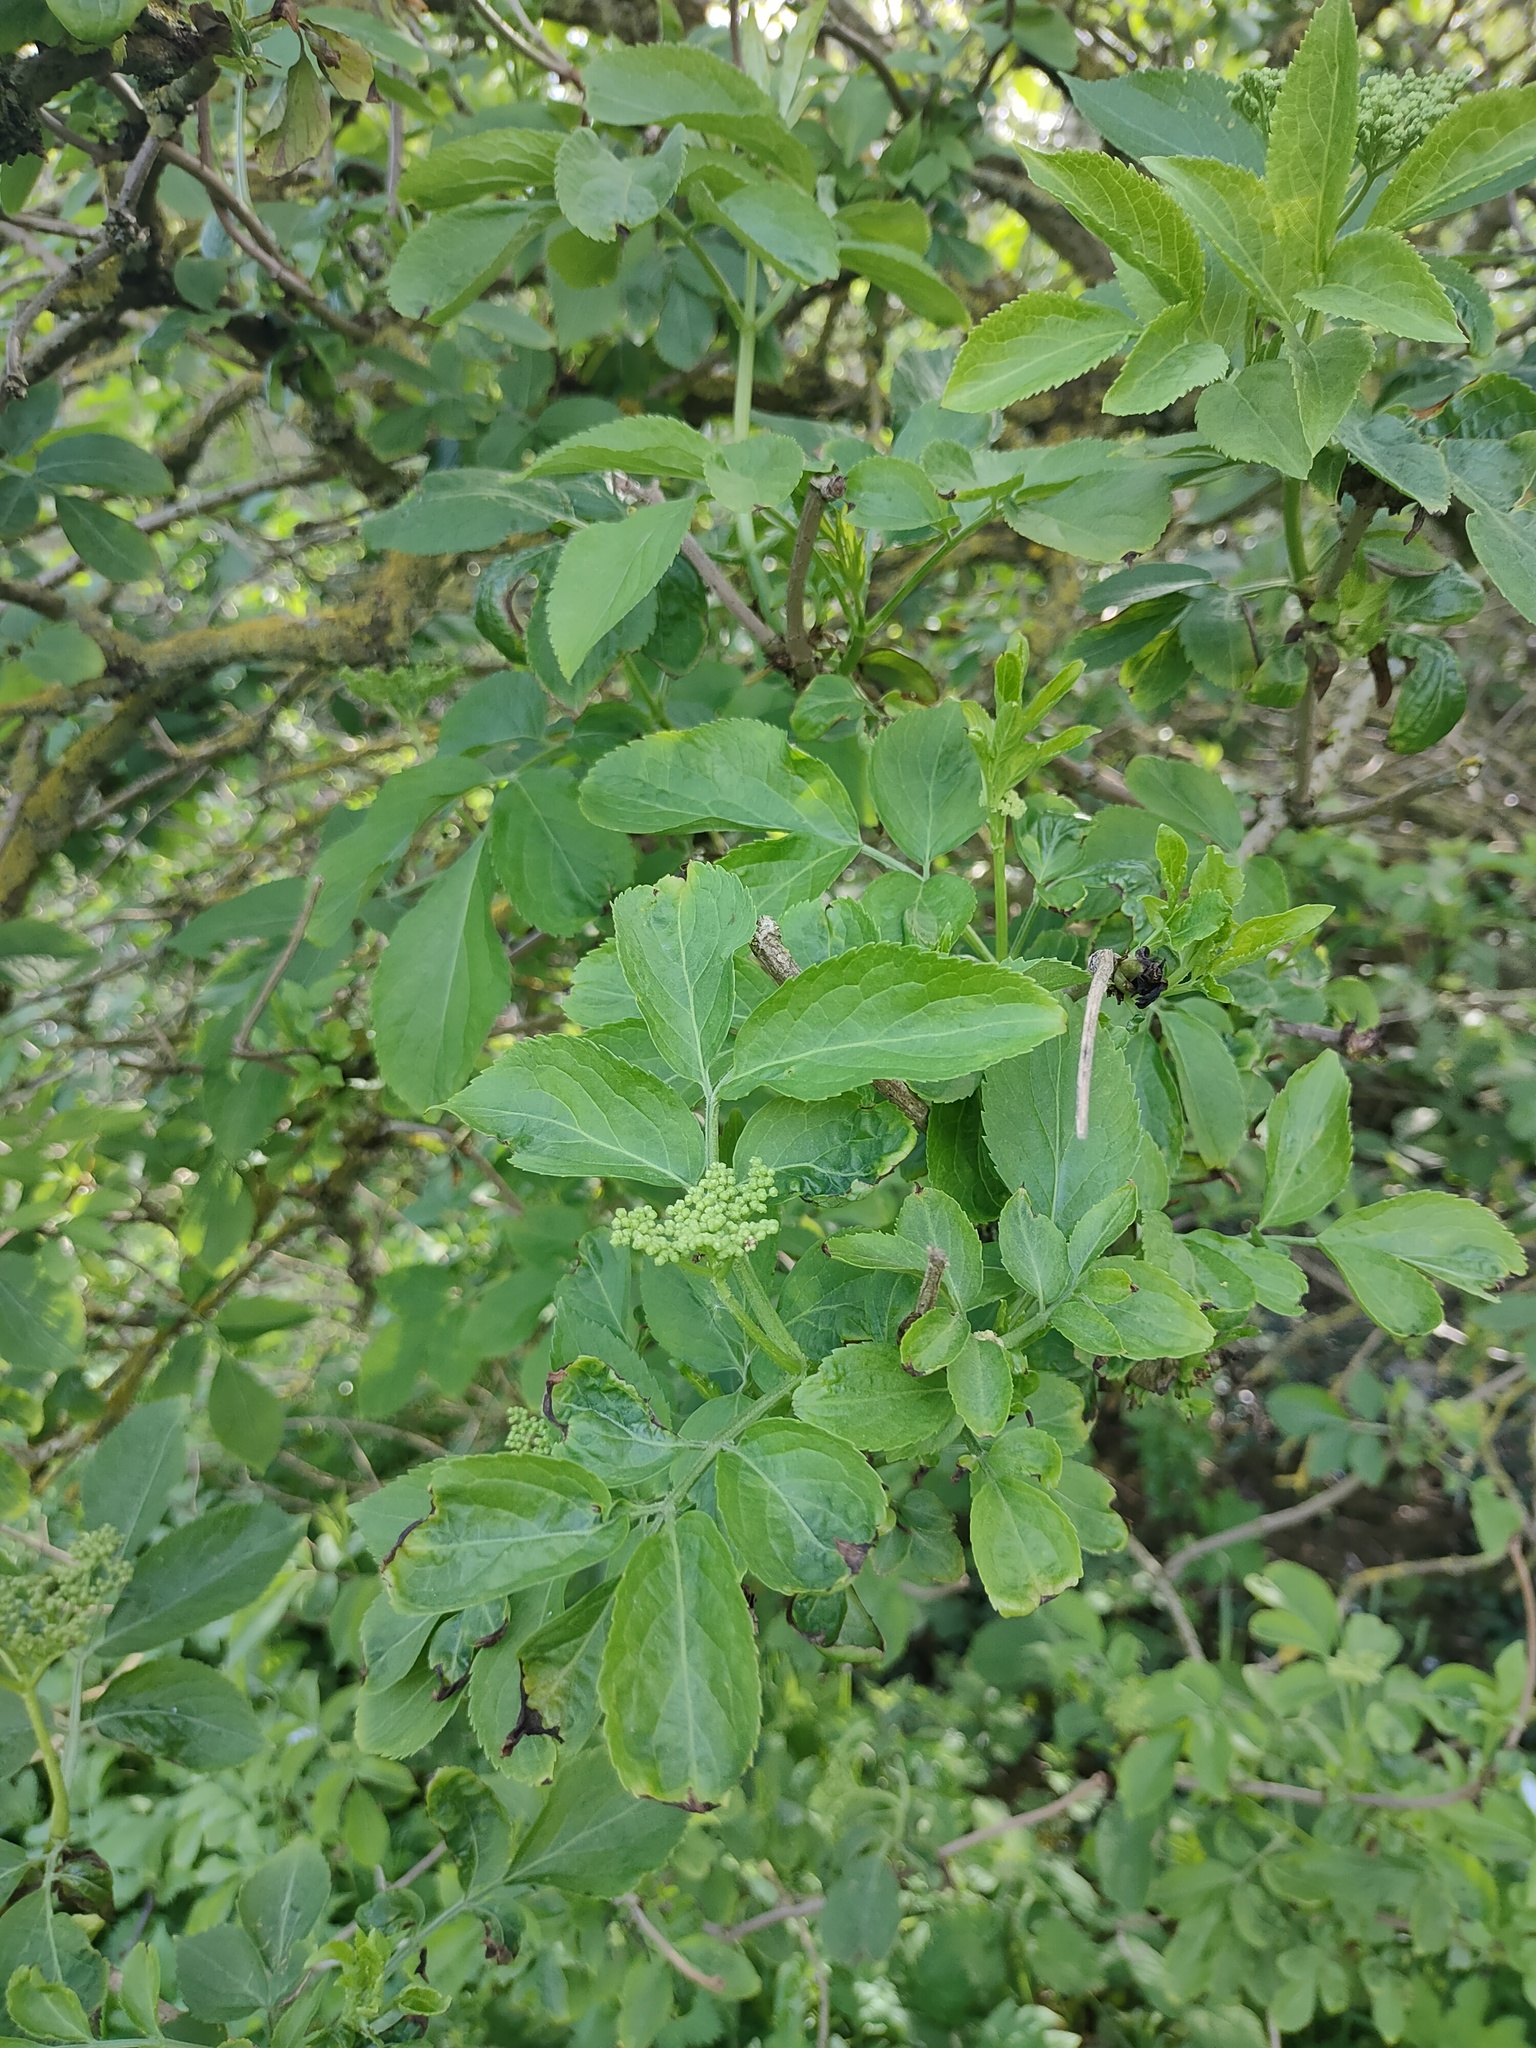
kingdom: Plantae
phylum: Tracheophyta
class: Magnoliopsida
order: Dipsacales
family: Viburnaceae
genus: Sambucus
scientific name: Sambucus nigra
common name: Elder
